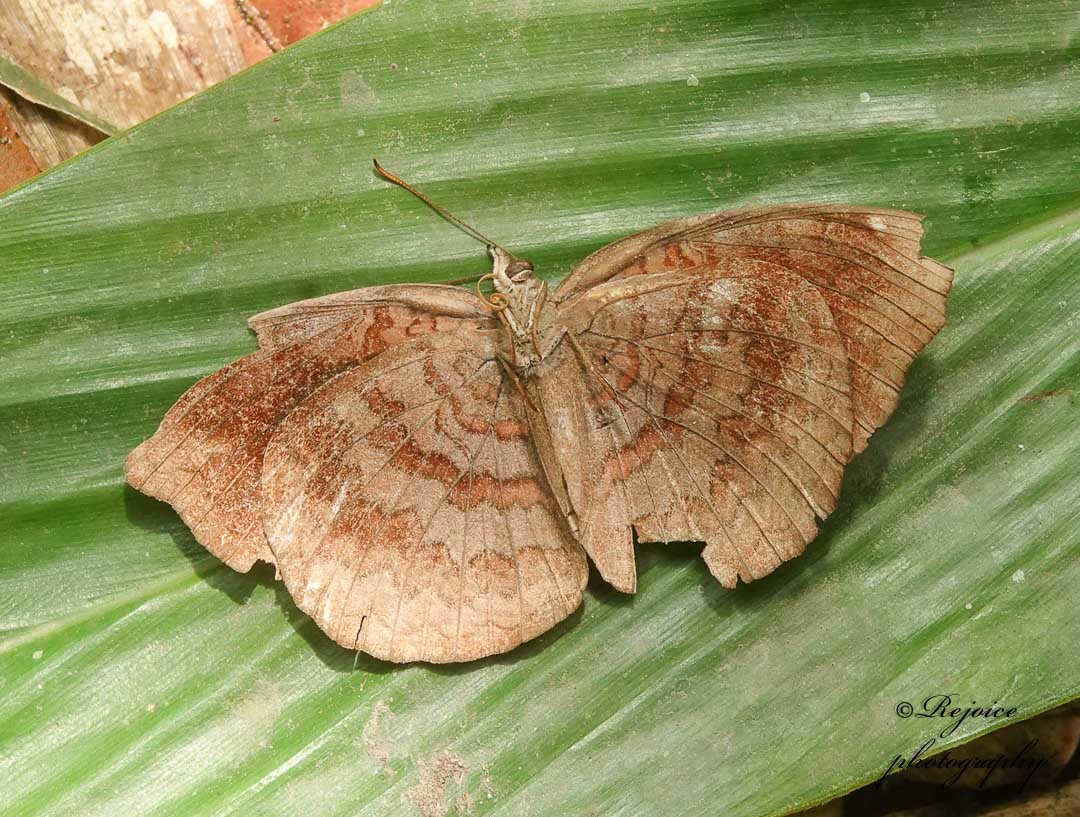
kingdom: Animalia
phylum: Arthropoda
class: Insecta
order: Lepidoptera
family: Nymphalidae
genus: Ariadne
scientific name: Ariadne merione
